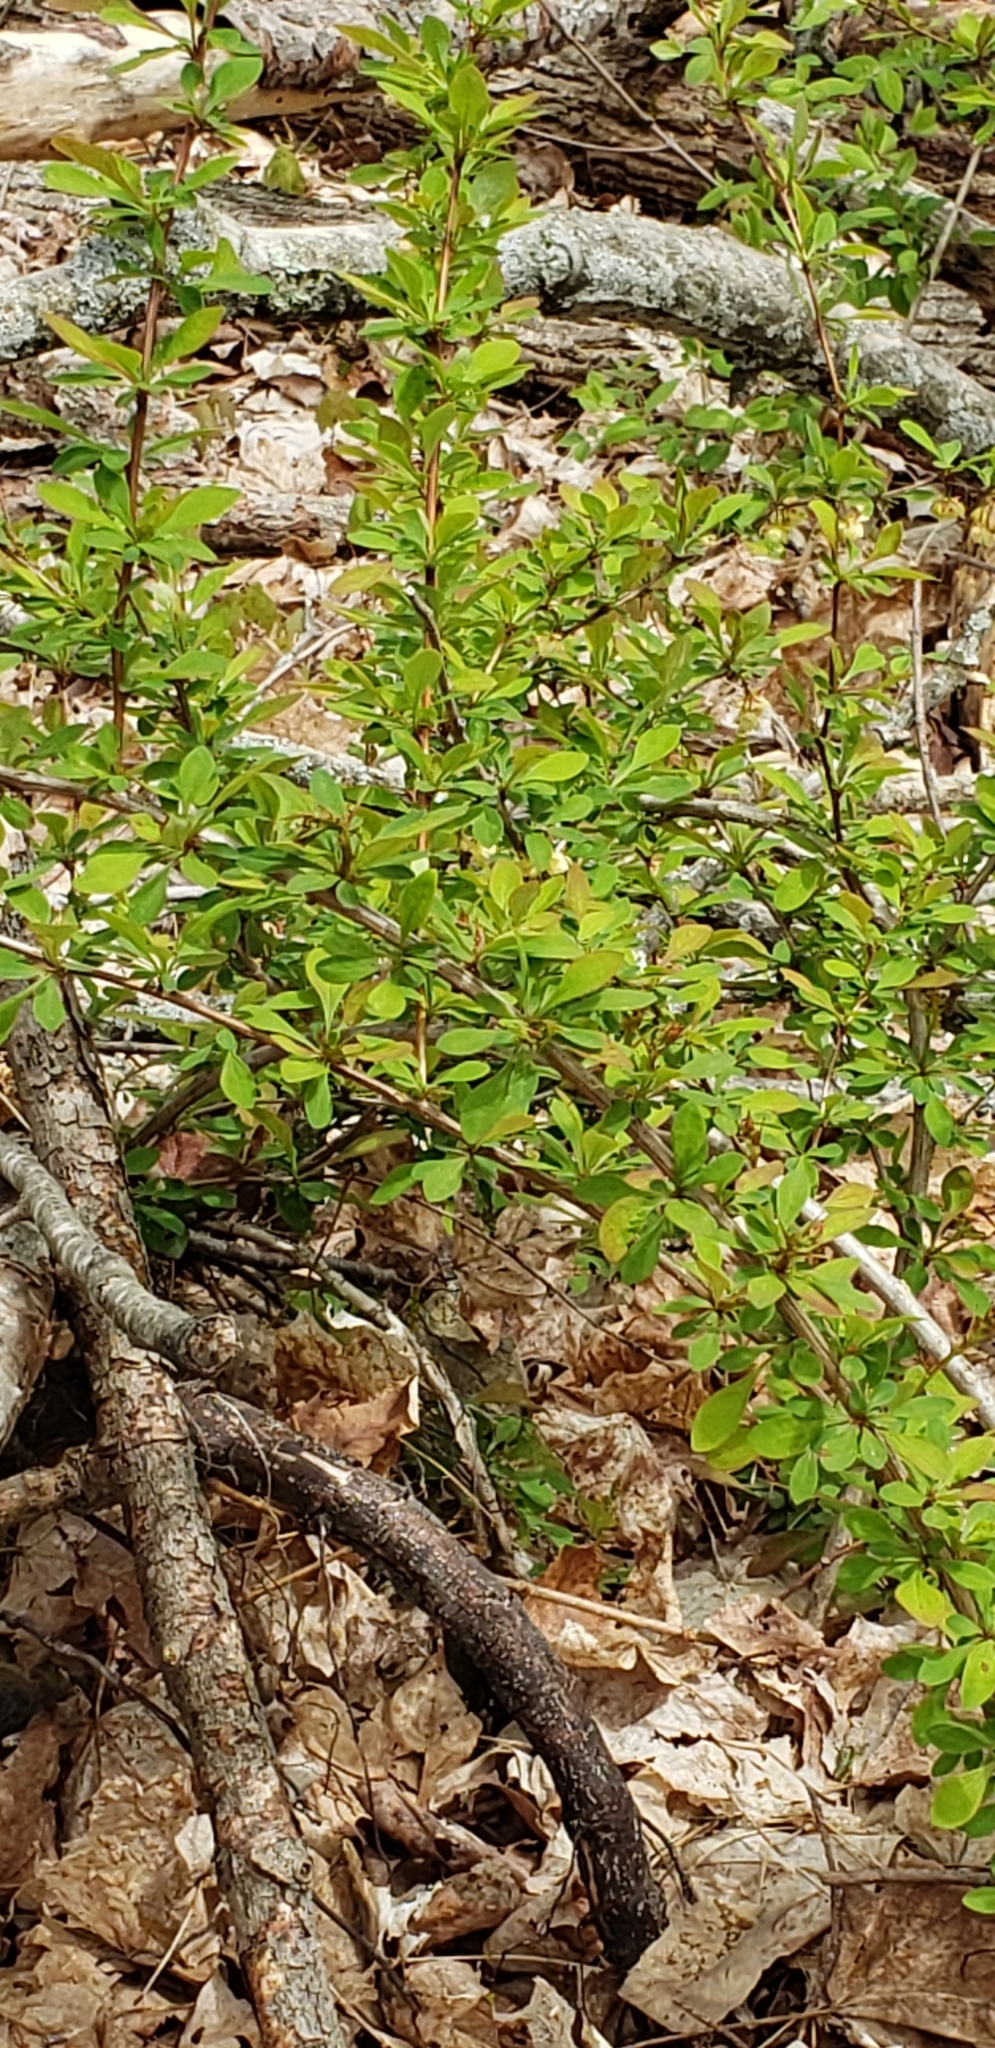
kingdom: Plantae
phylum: Tracheophyta
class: Magnoliopsida
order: Ranunculales
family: Berberidaceae
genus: Berberis
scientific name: Berberis thunbergii
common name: Japanese barberry
